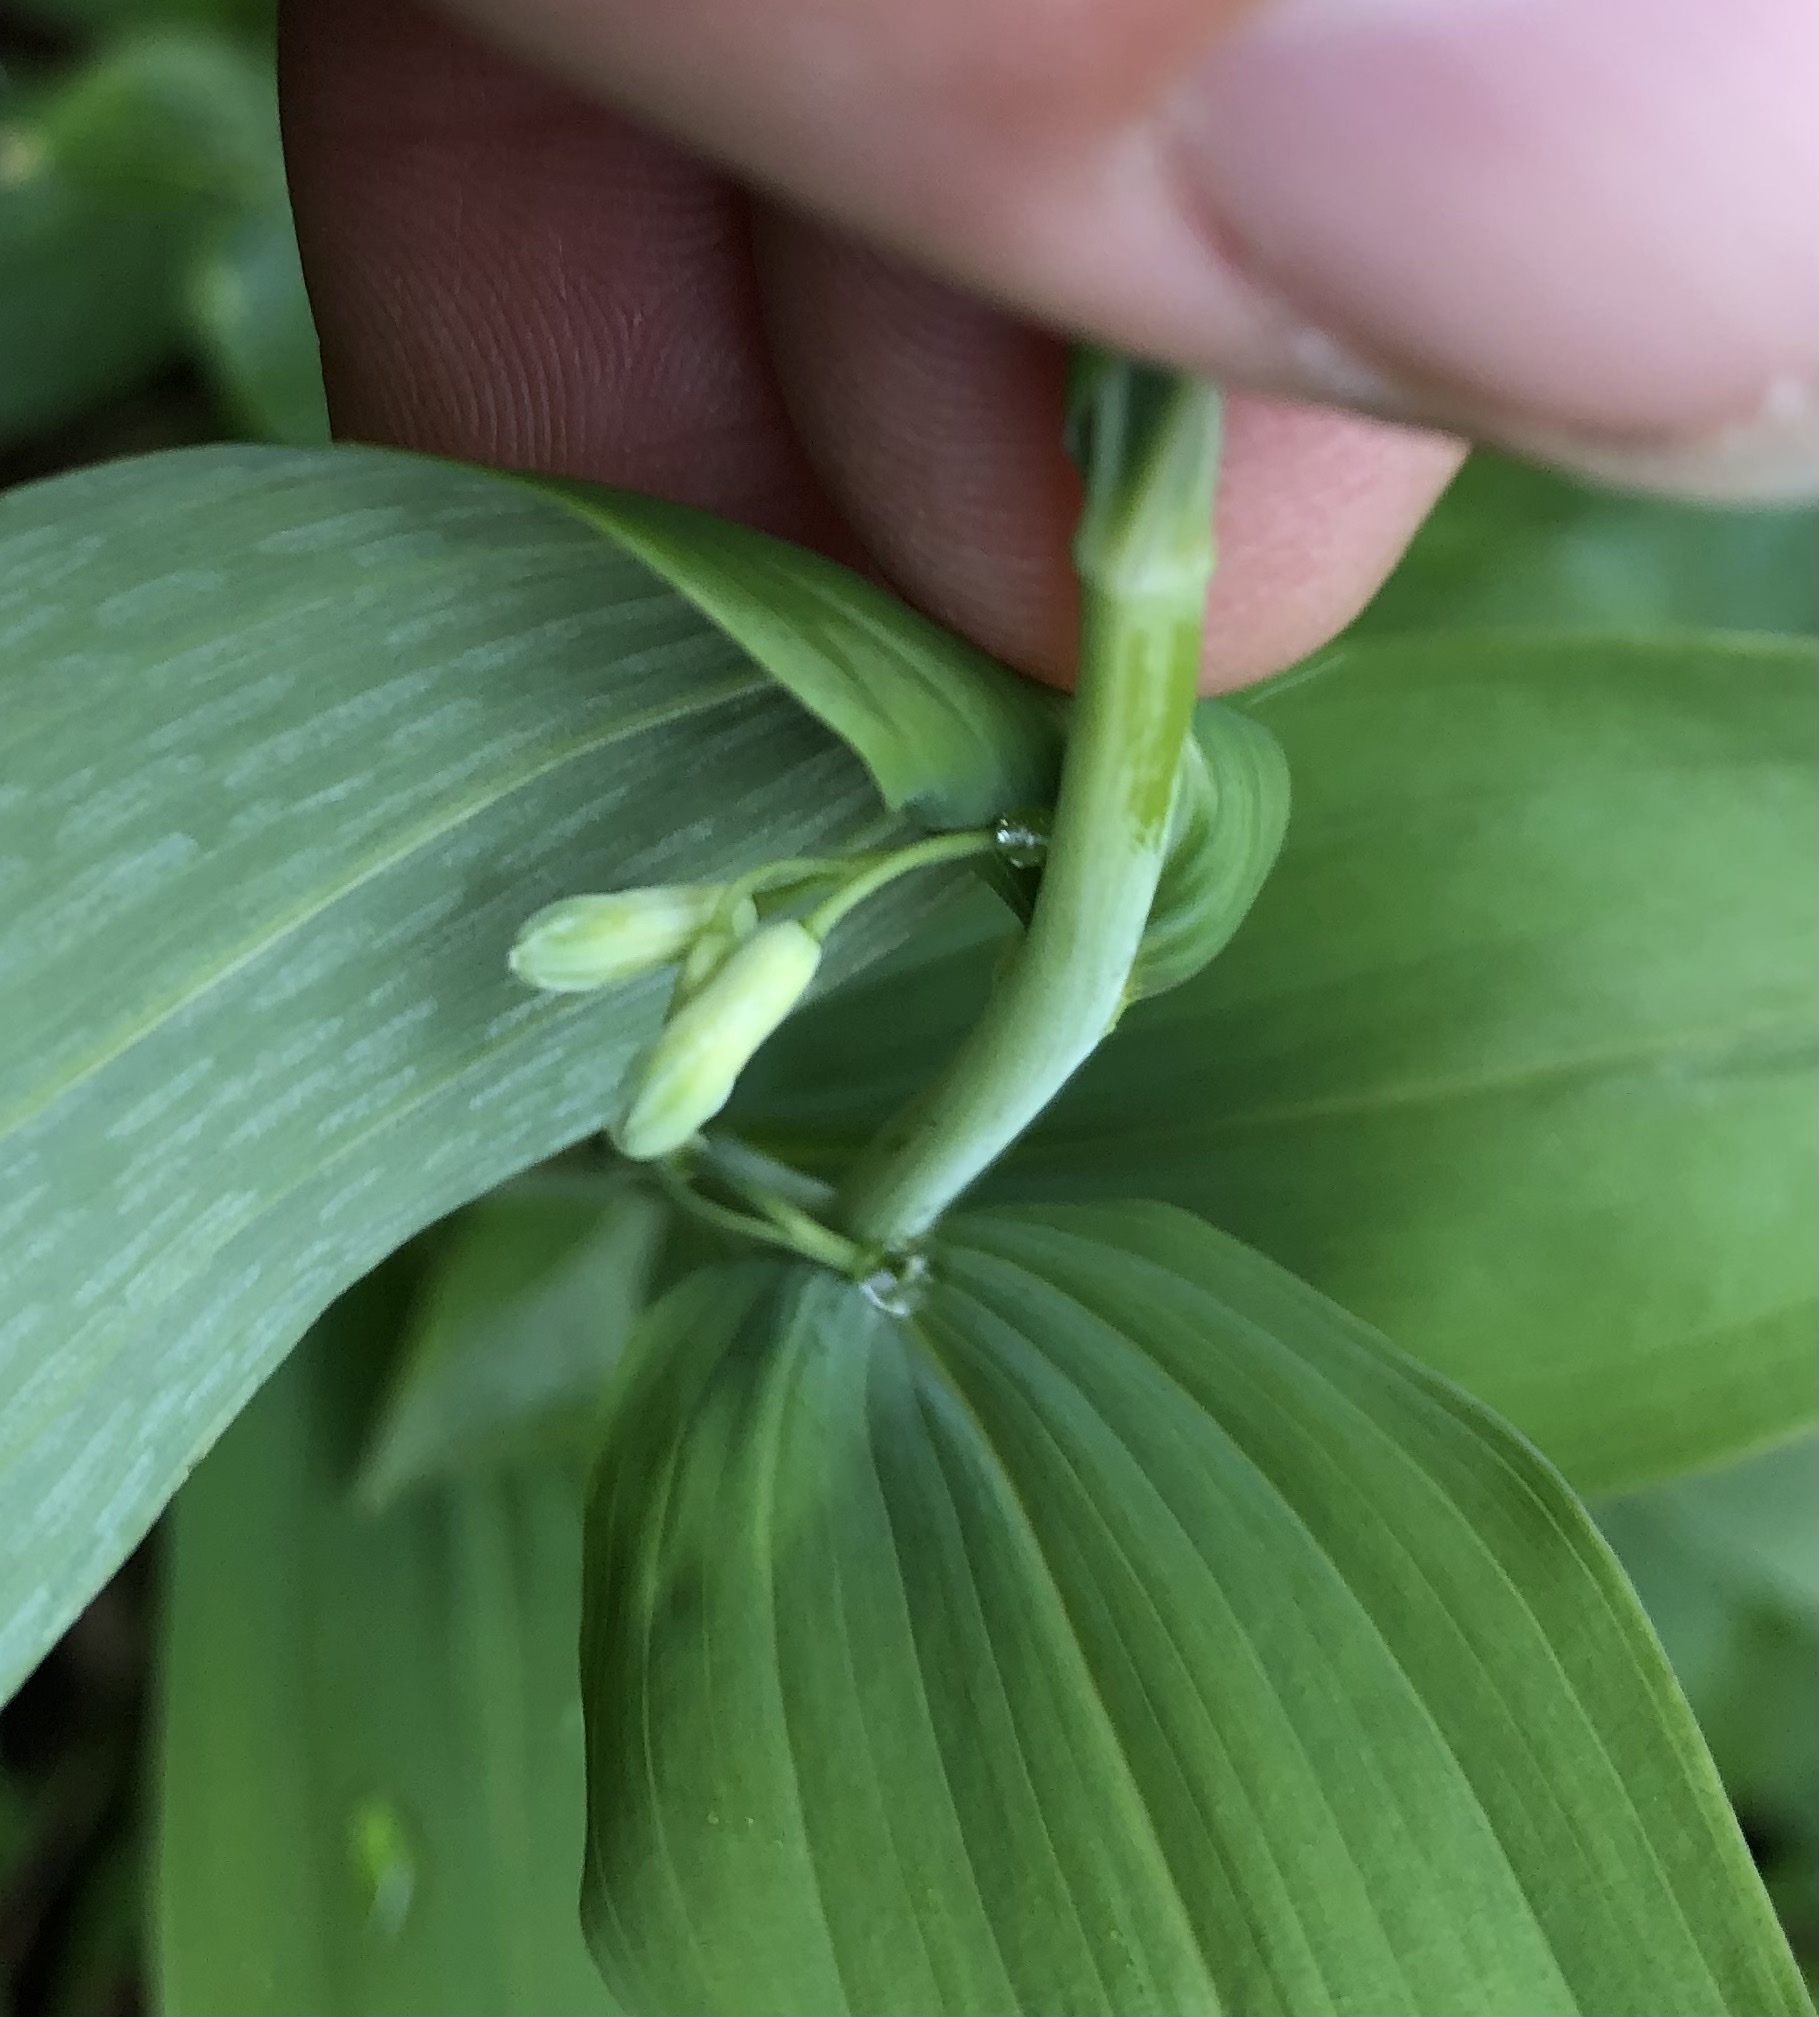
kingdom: Plantae
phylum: Tracheophyta
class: Liliopsida
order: Asparagales
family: Asparagaceae
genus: Polygonatum
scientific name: Polygonatum multiflorum
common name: Solomon's-seal
